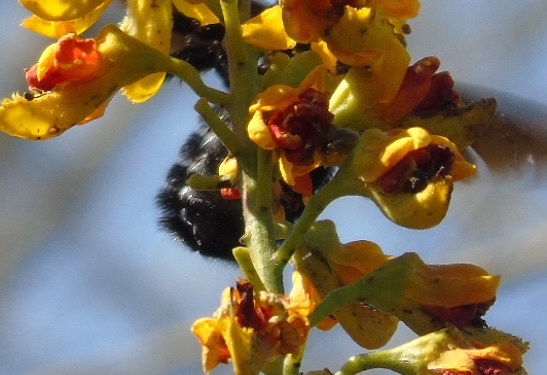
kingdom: Animalia
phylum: Arthropoda
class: Insecta
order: Hymenoptera
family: Apidae
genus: Xylocopa
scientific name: Xylocopa fimbriata
